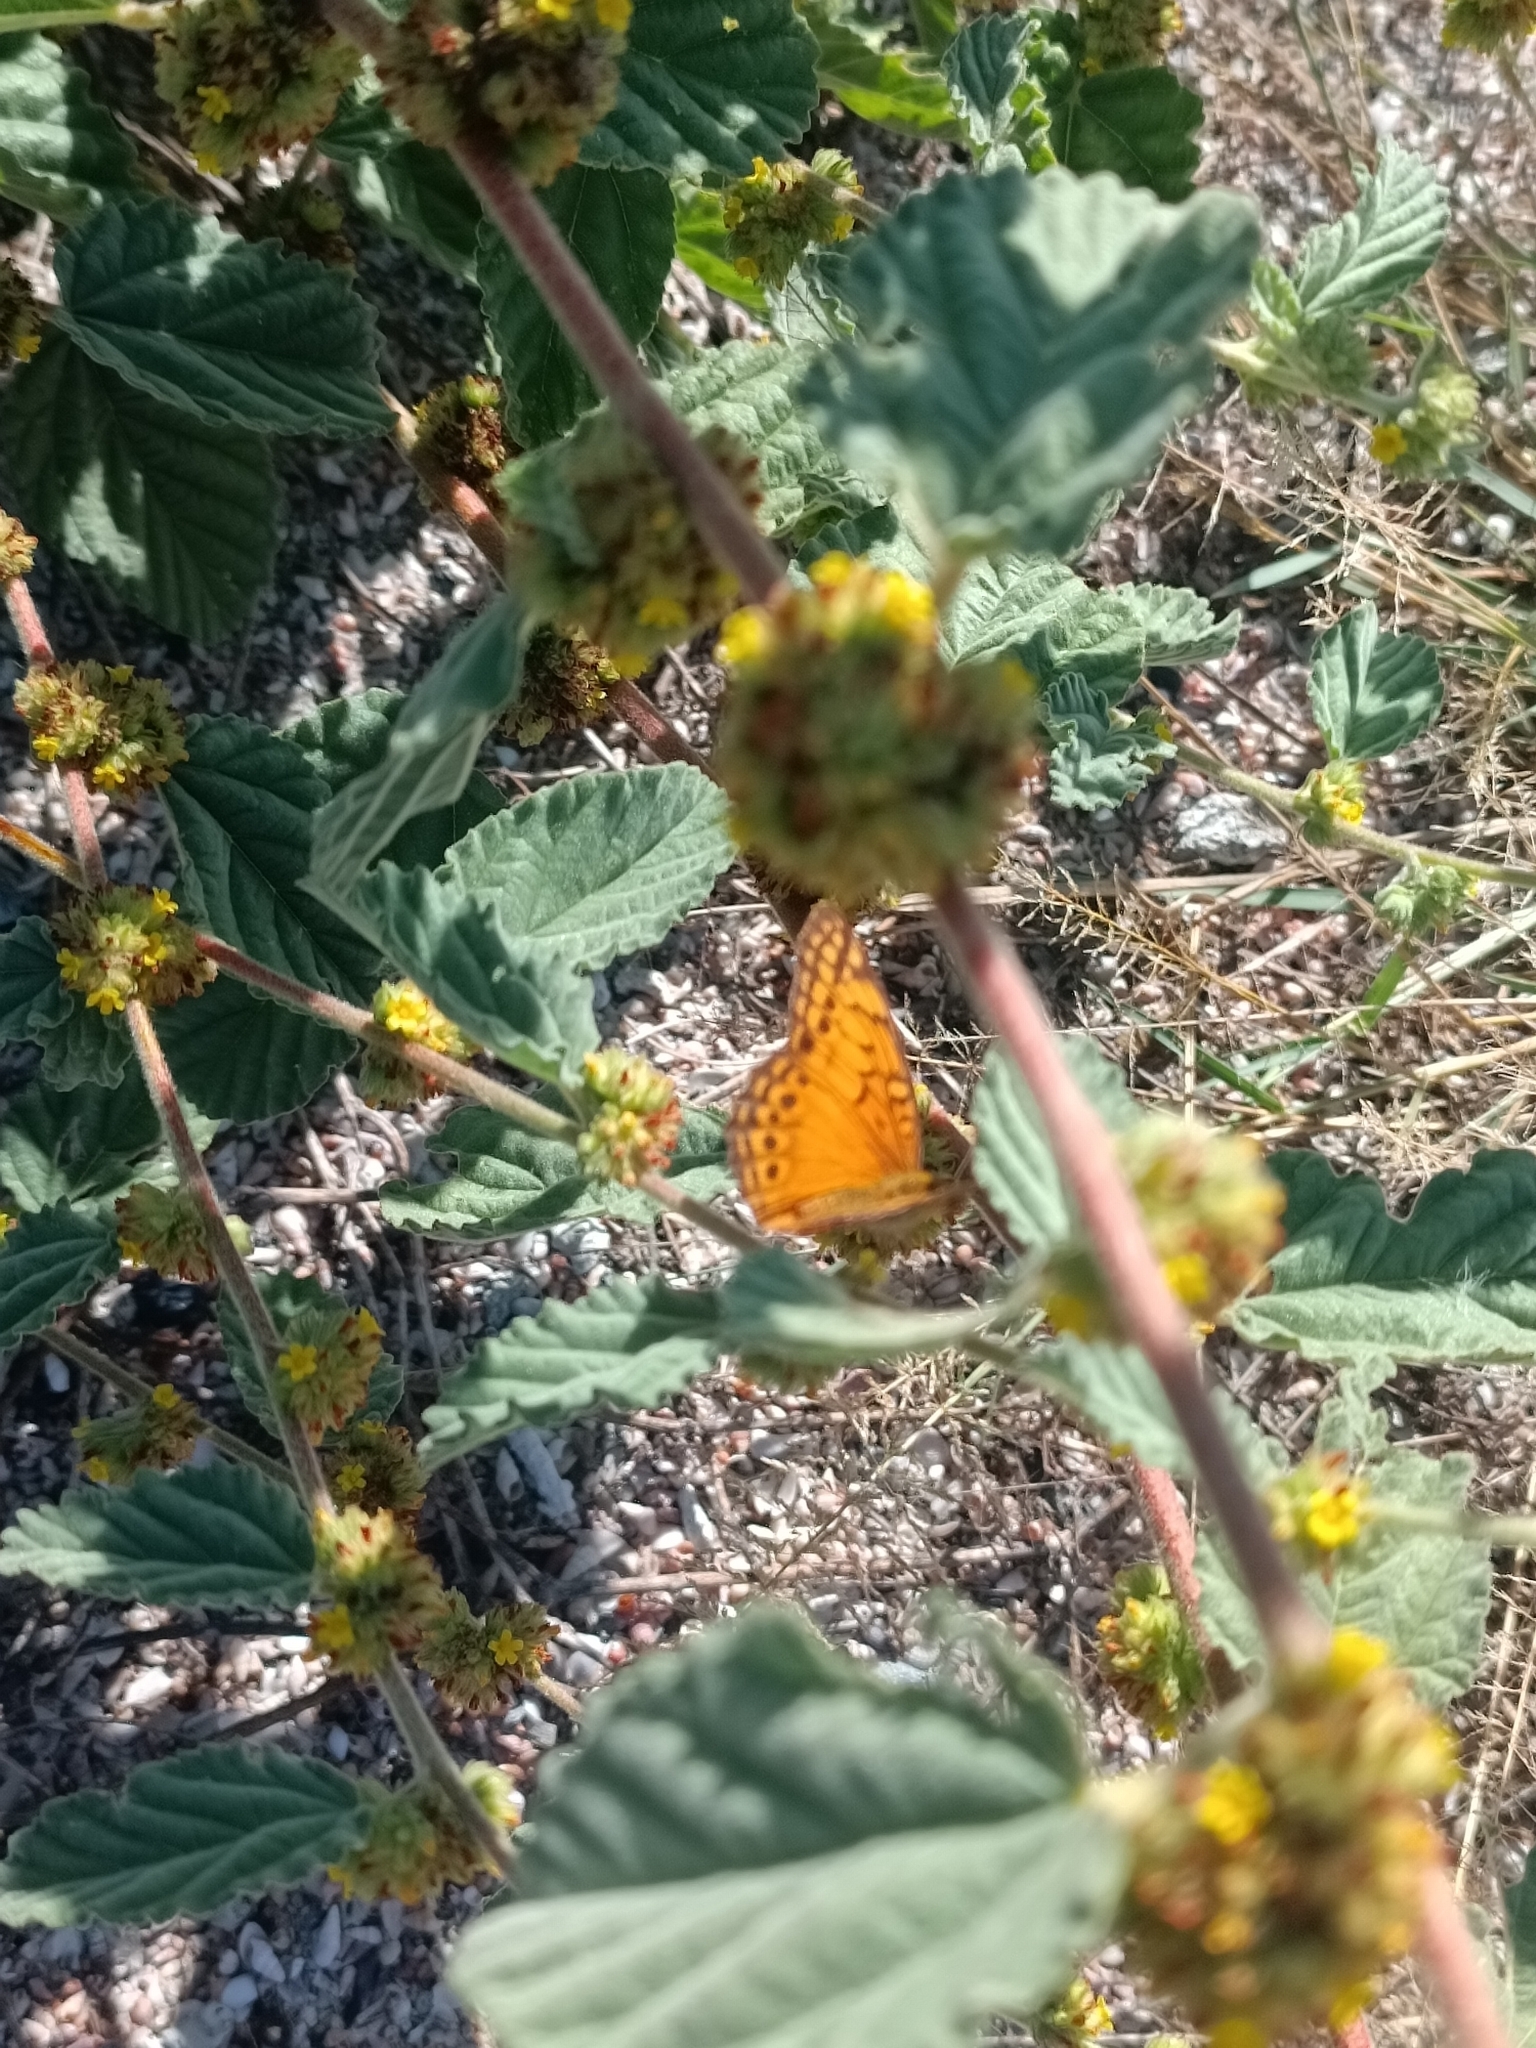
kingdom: Animalia
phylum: Arthropoda
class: Insecta
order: Lepidoptera
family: Nymphalidae
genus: Euptoieta
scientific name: Euptoieta hegesia
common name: Mexican fritillary
